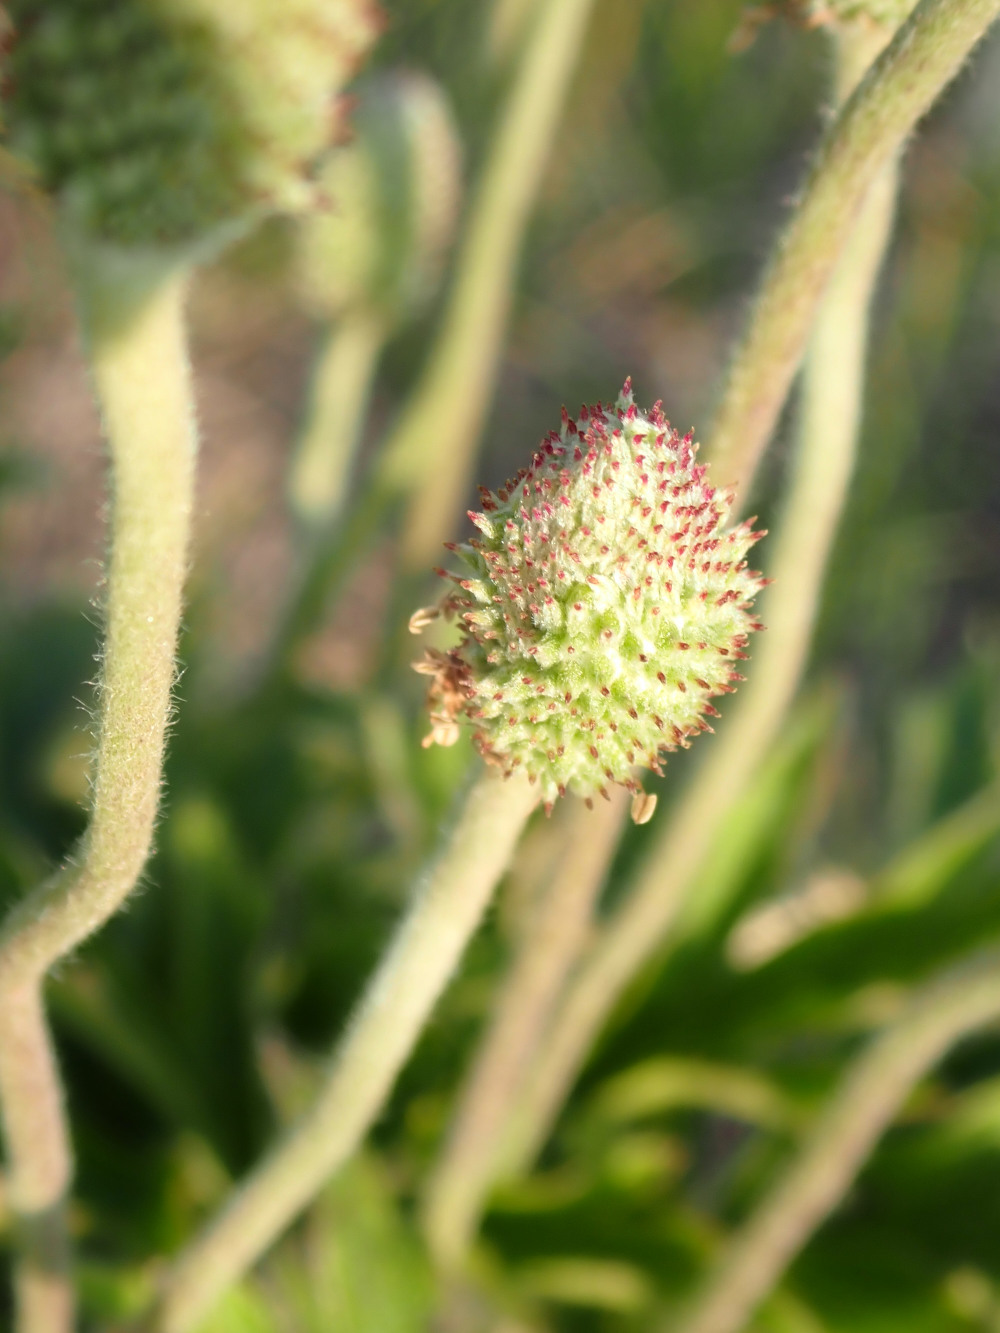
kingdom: Plantae
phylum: Tracheophyta
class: Magnoliopsida
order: Ranunculales
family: Ranunculaceae
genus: Anemone
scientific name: Anemone cylindrica
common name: Candle anemone
